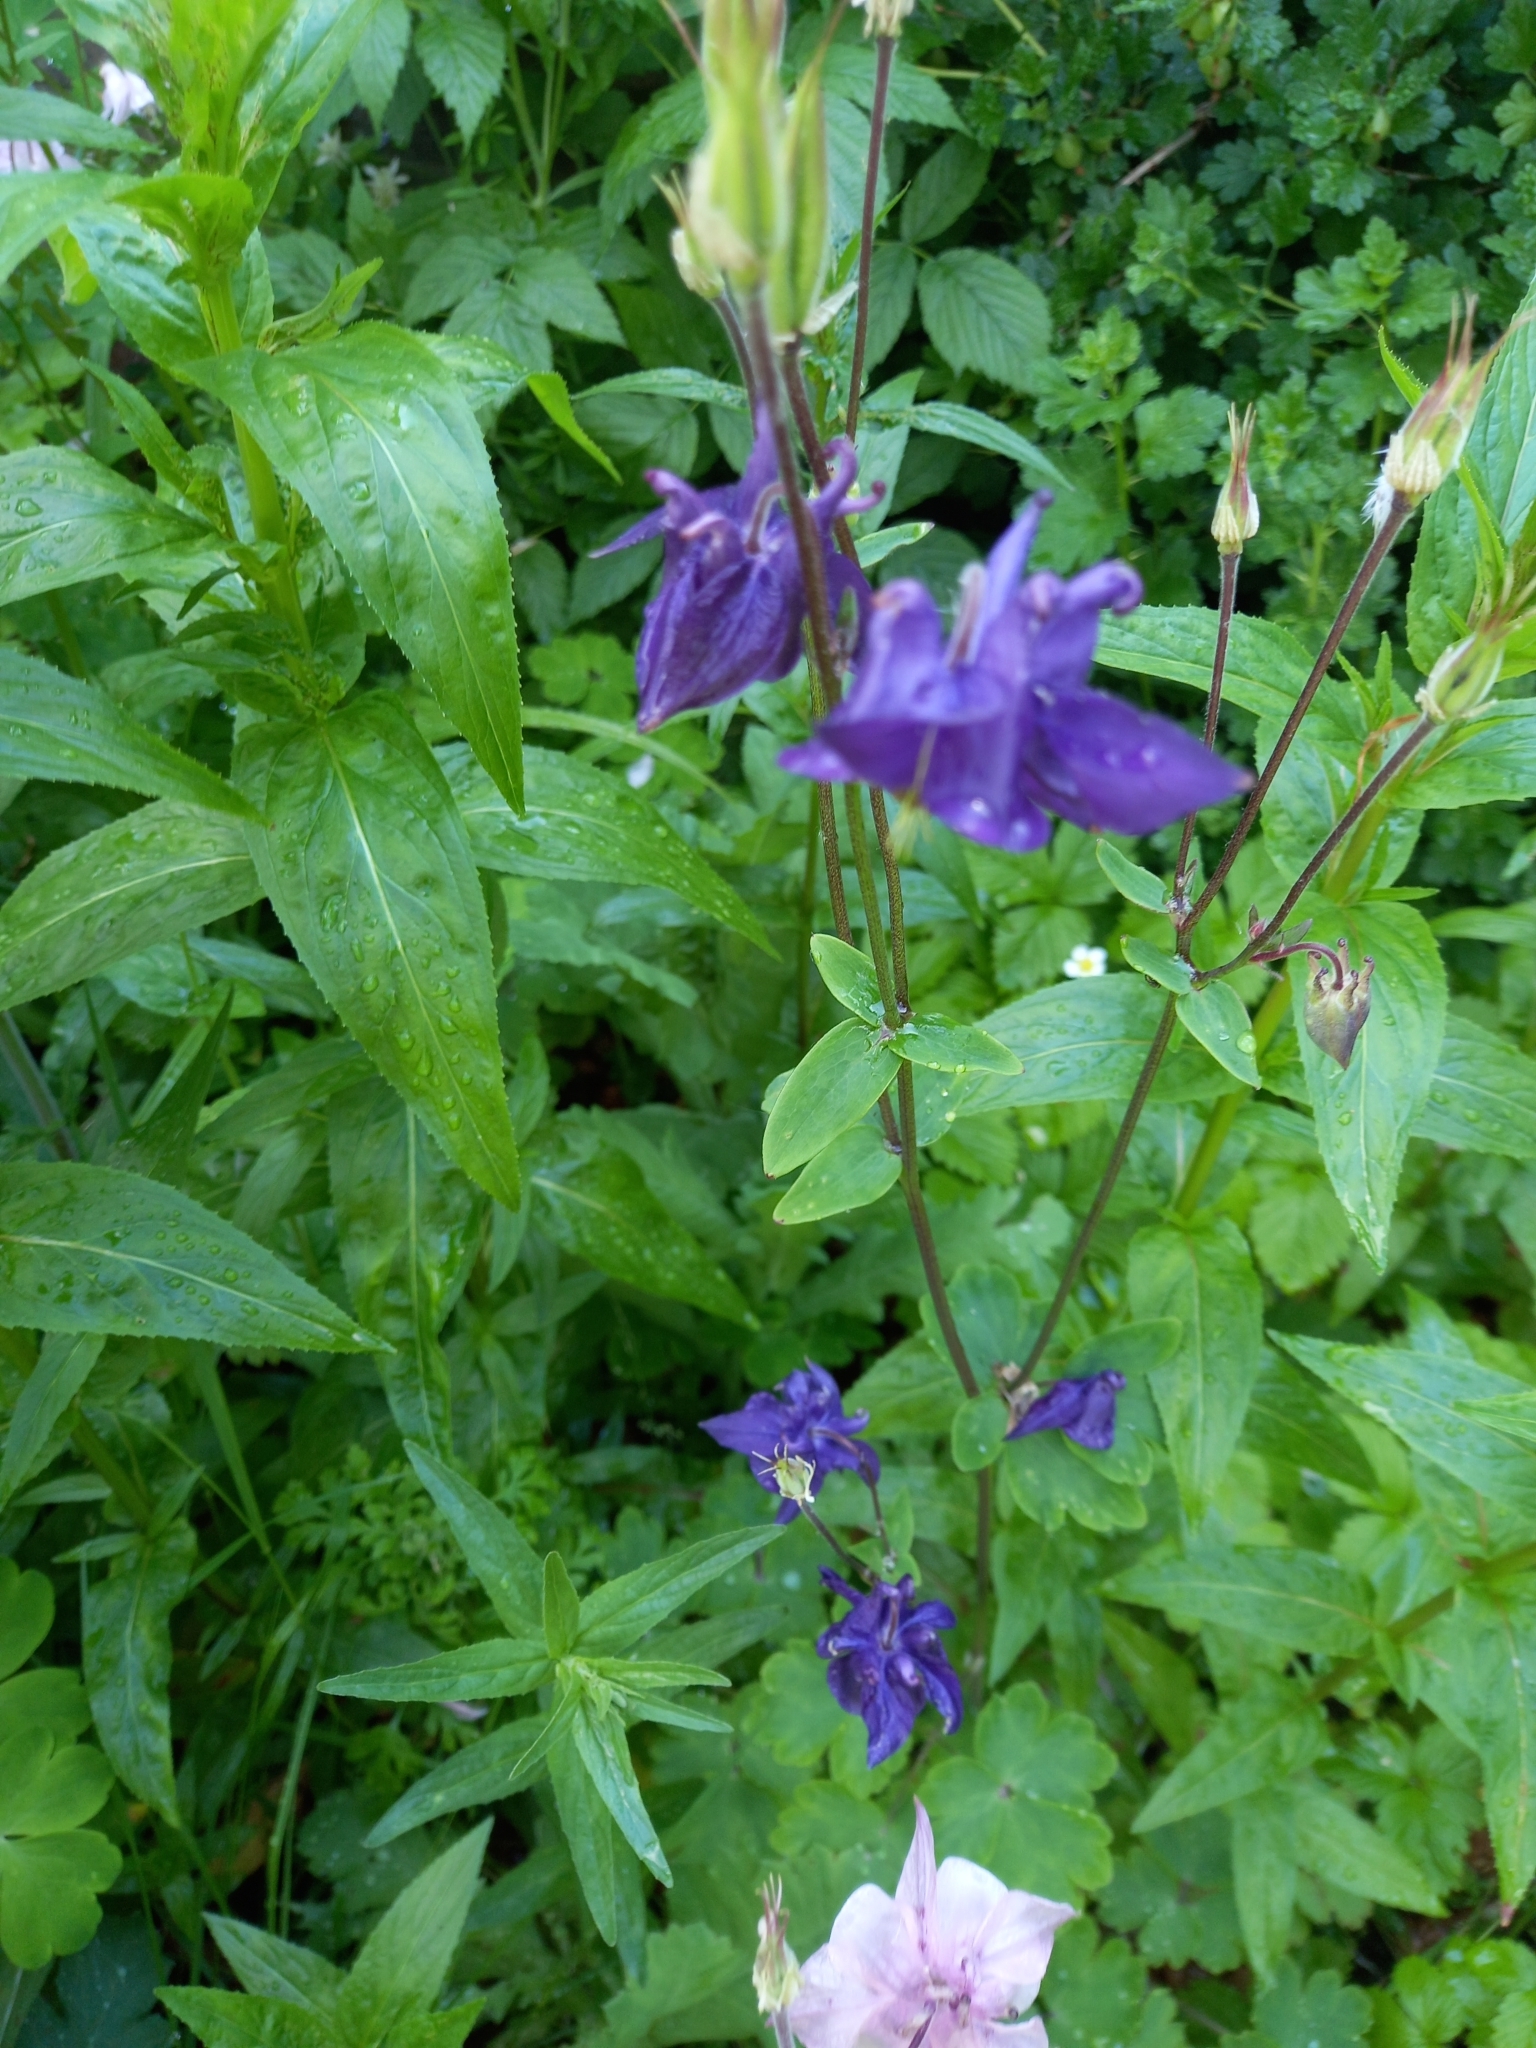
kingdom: Plantae
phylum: Tracheophyta
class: Magnoliopsida
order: Ranunculales
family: Ranunculaceae
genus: Aquilegia
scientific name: Aquilegia vulgaris
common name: Columbine
